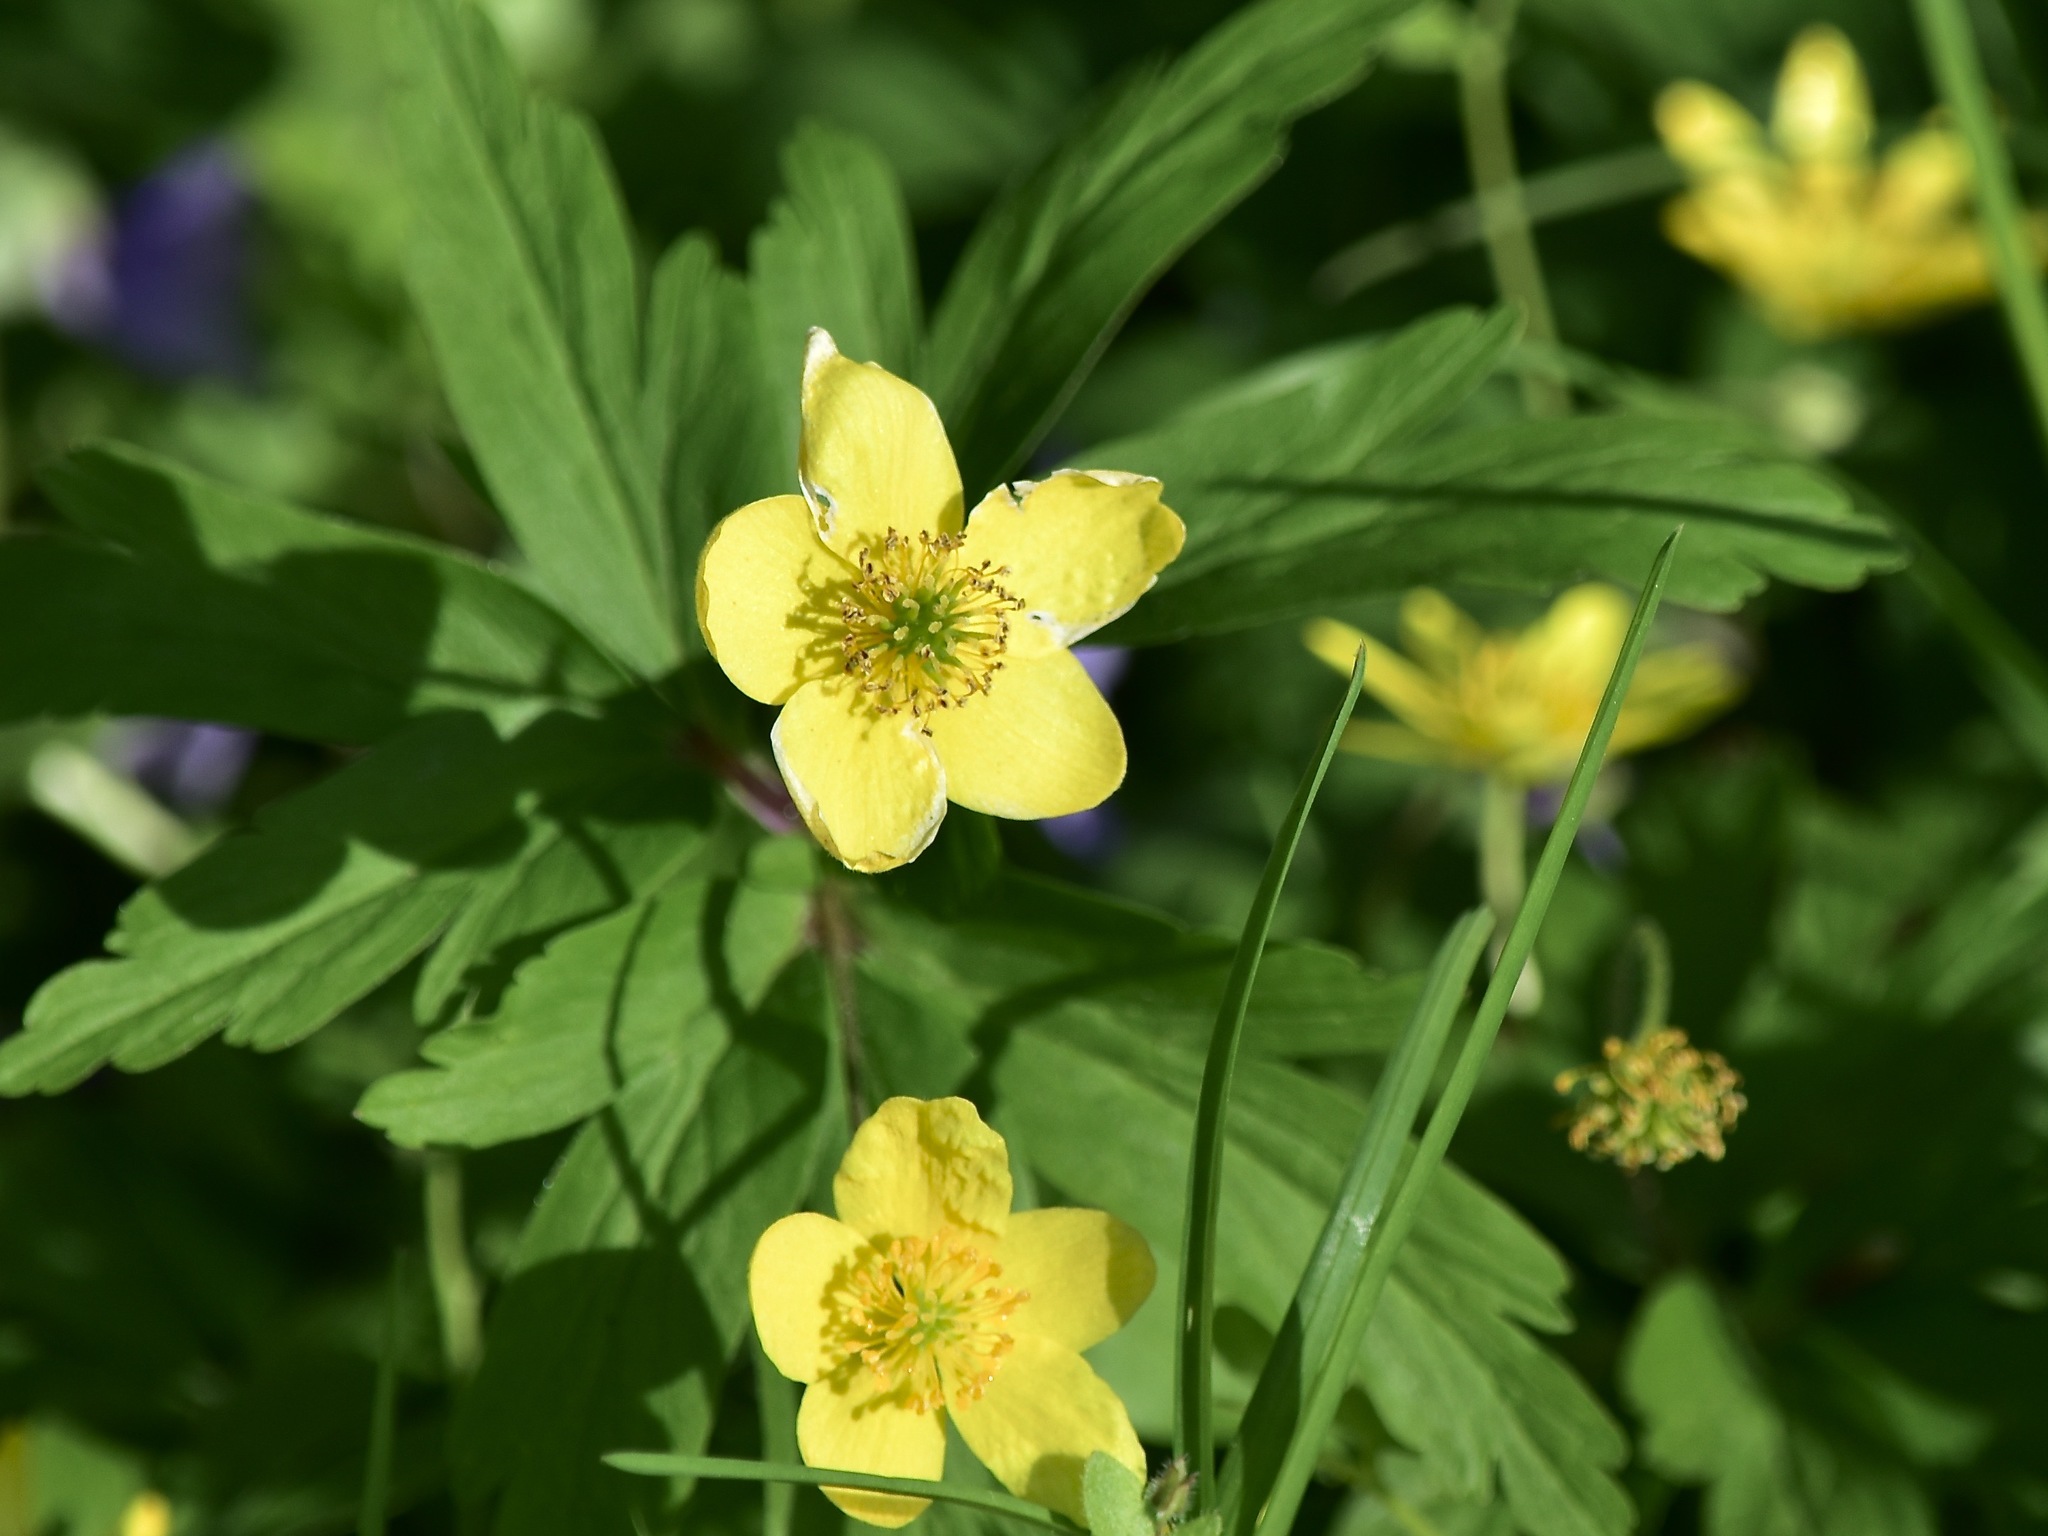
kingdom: Plantae
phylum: Tracheophyta
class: Magnoliopsida
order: Ranunculales
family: Ranunculaceae
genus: Anemone
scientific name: Anemone ranunculoides
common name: Yellow anemone
